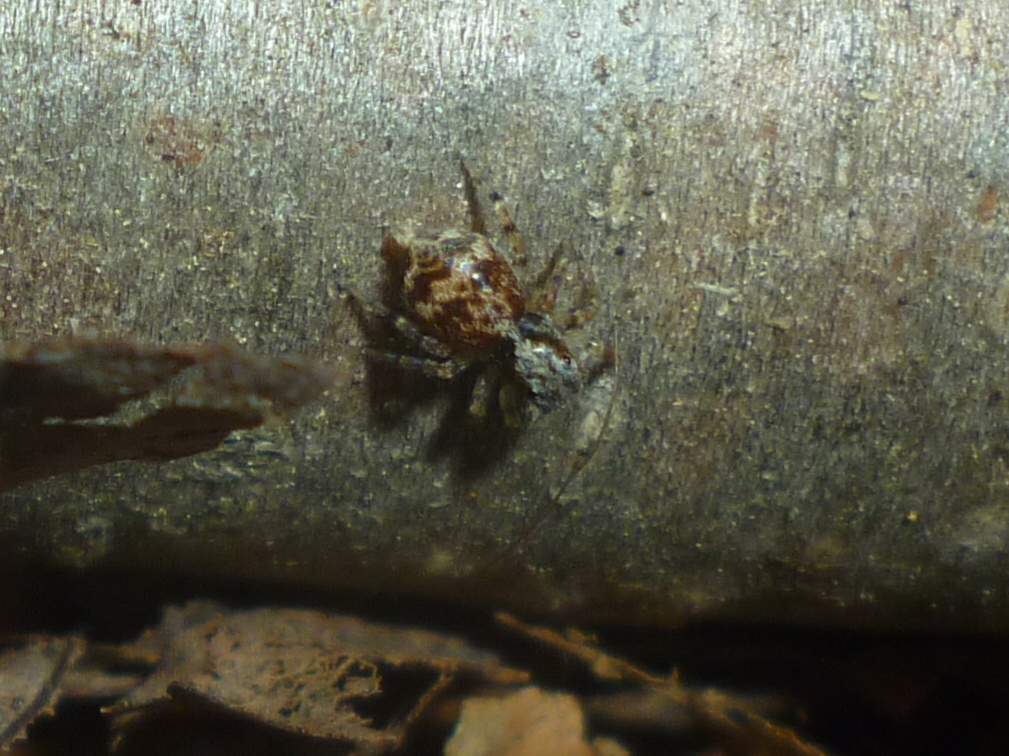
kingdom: Animalia
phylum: Arthropoda
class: Arachnida
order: Araneae
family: Salticidae
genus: Naphrys
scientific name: Naphrys pulex
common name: Flea jumping spider
